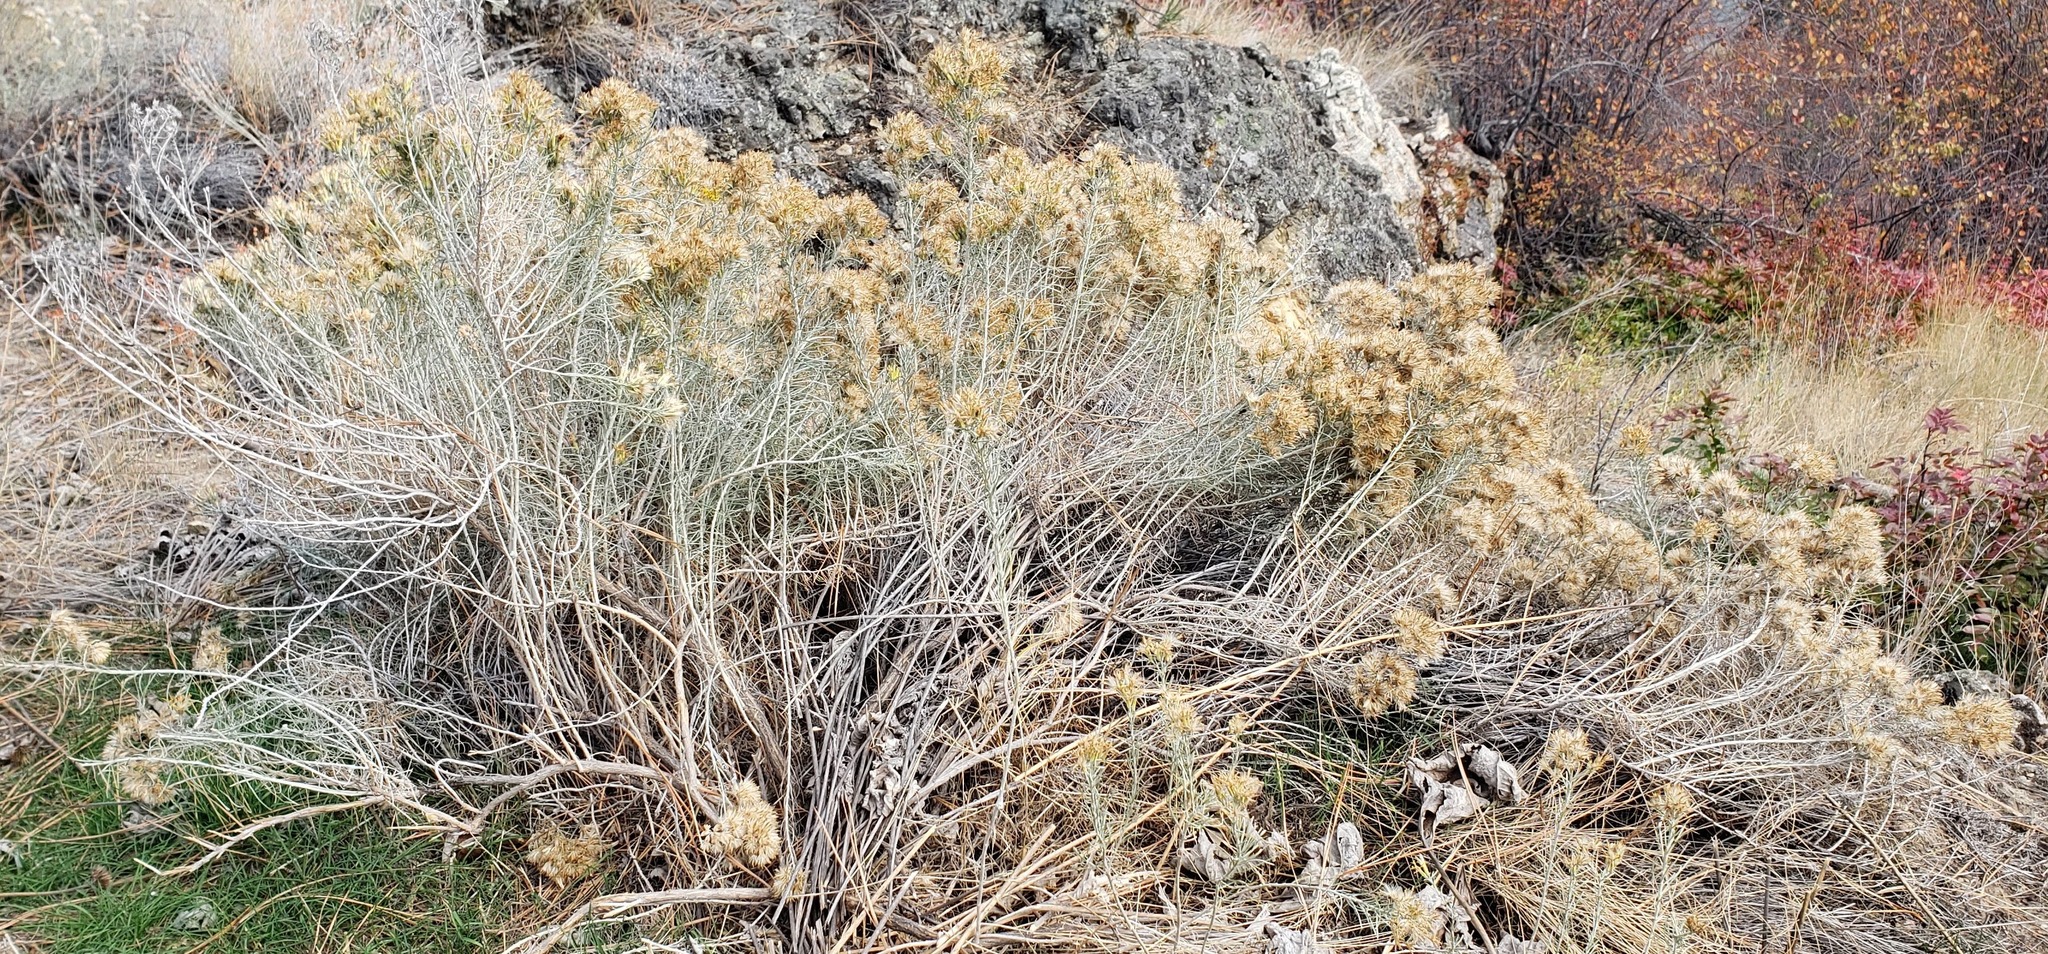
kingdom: Plantae
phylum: Tracheophyta
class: Magnoliopsida
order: Asterales
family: Asteraceae
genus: Ericameria
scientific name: Ericameria nauseosa
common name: Rubber rabbitbrush
